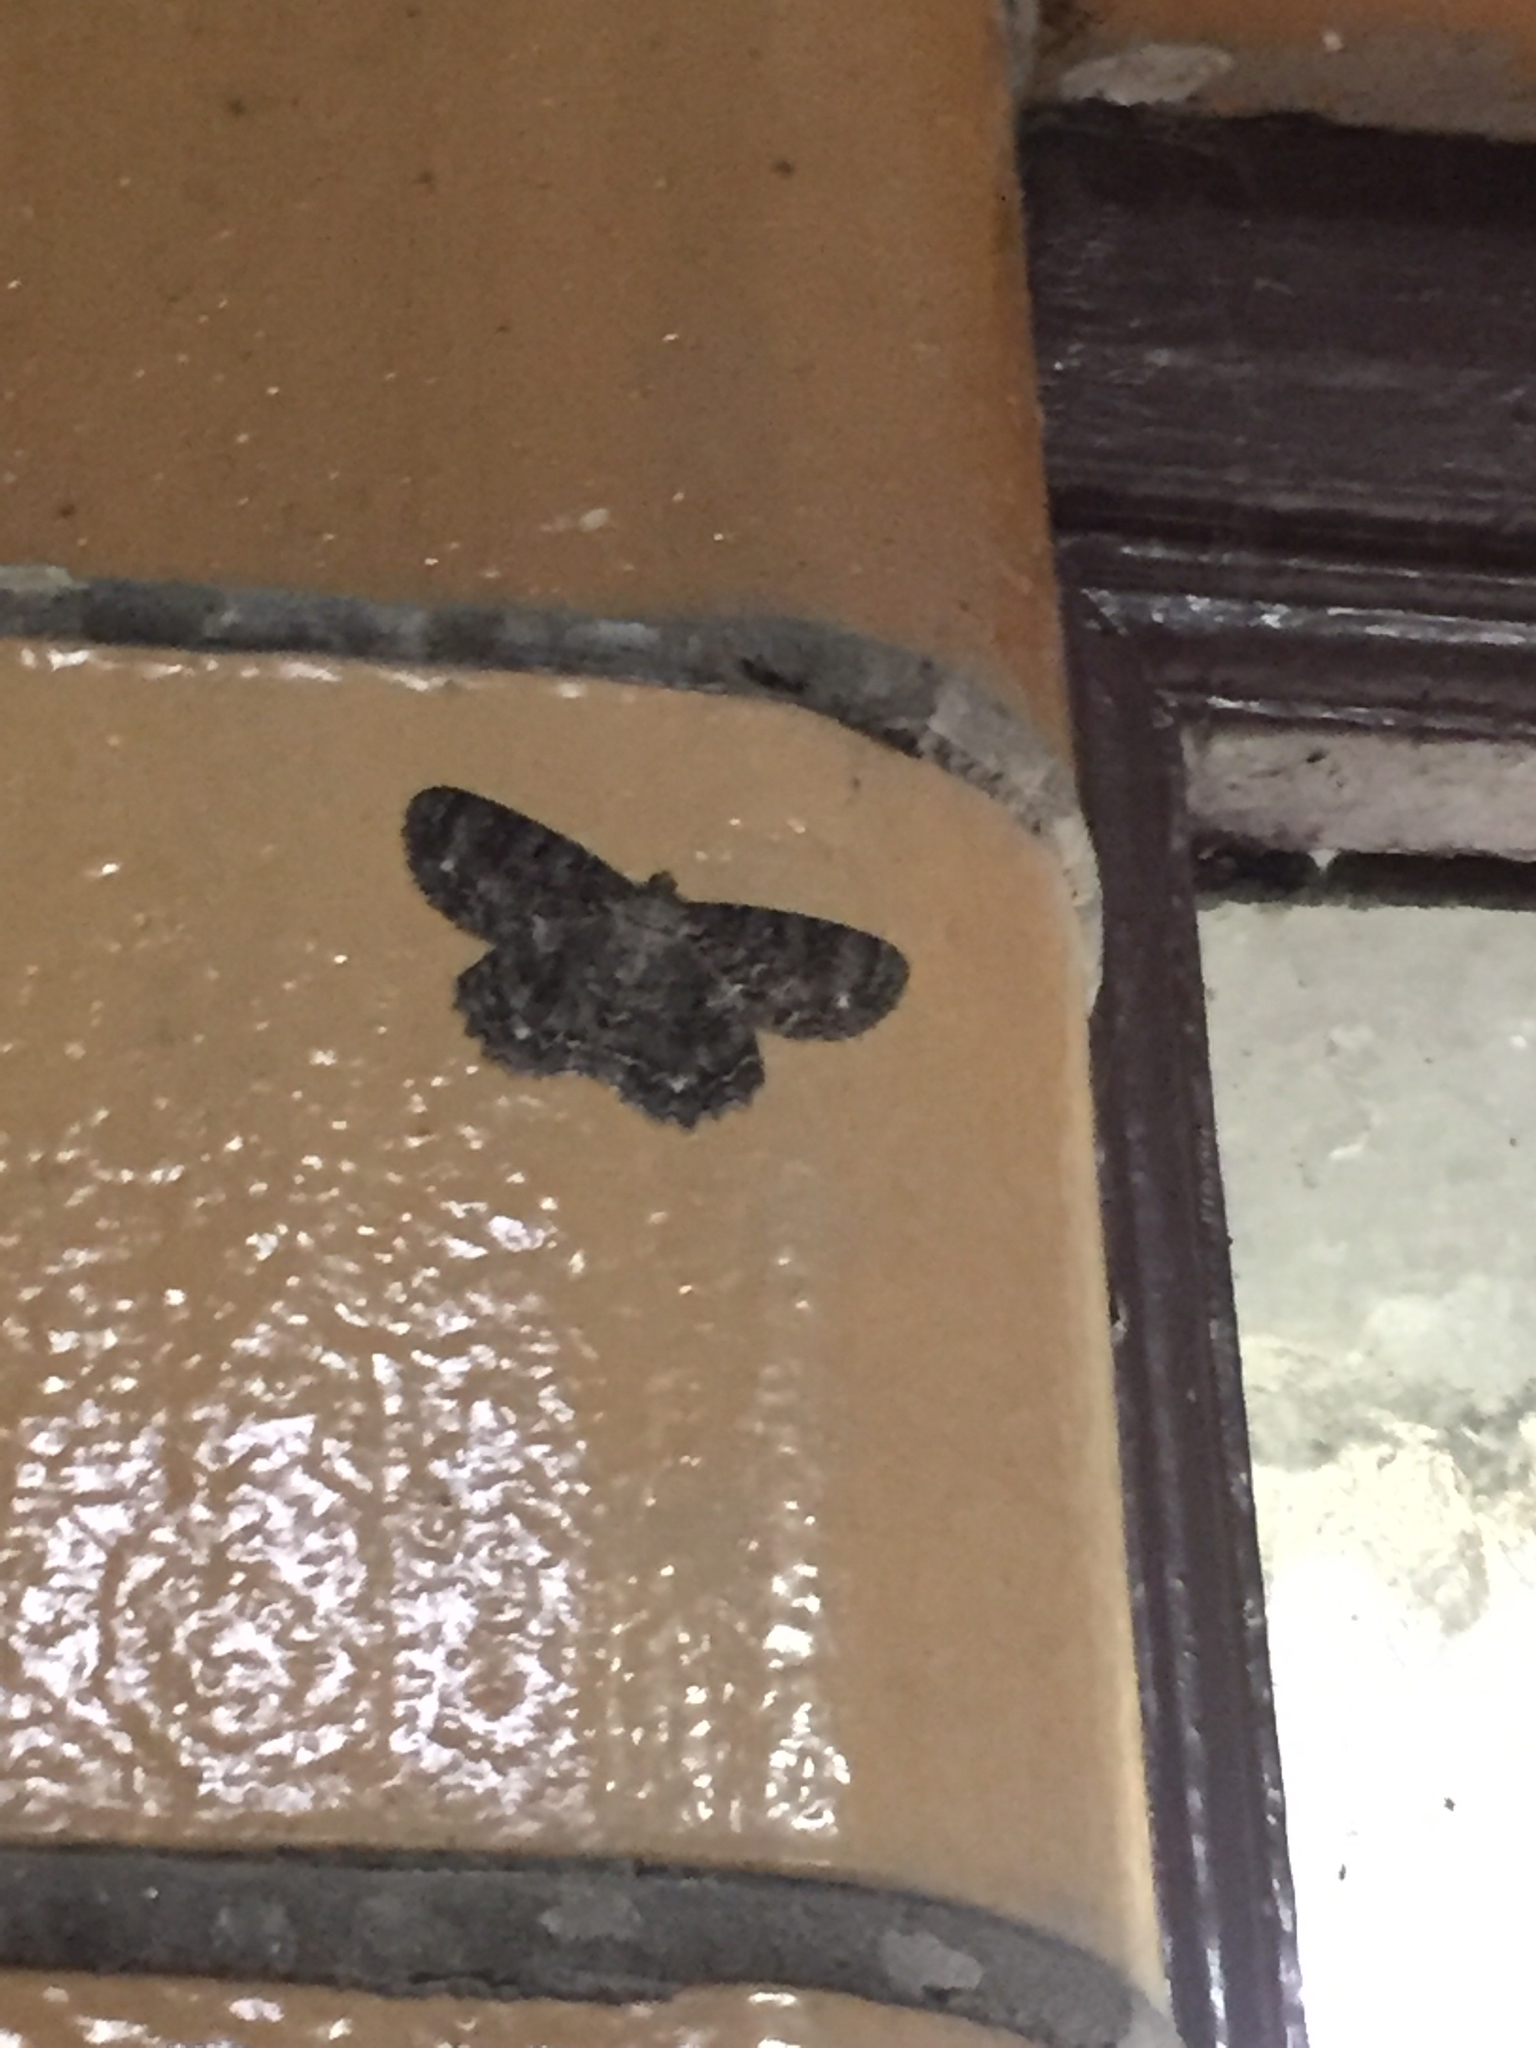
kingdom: Animalia
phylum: Arthropoda
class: Insecta
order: Lepidoptera
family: Geometridae
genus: Epimecis
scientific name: Epimecis hortaria
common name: Tulip-tree beauty
